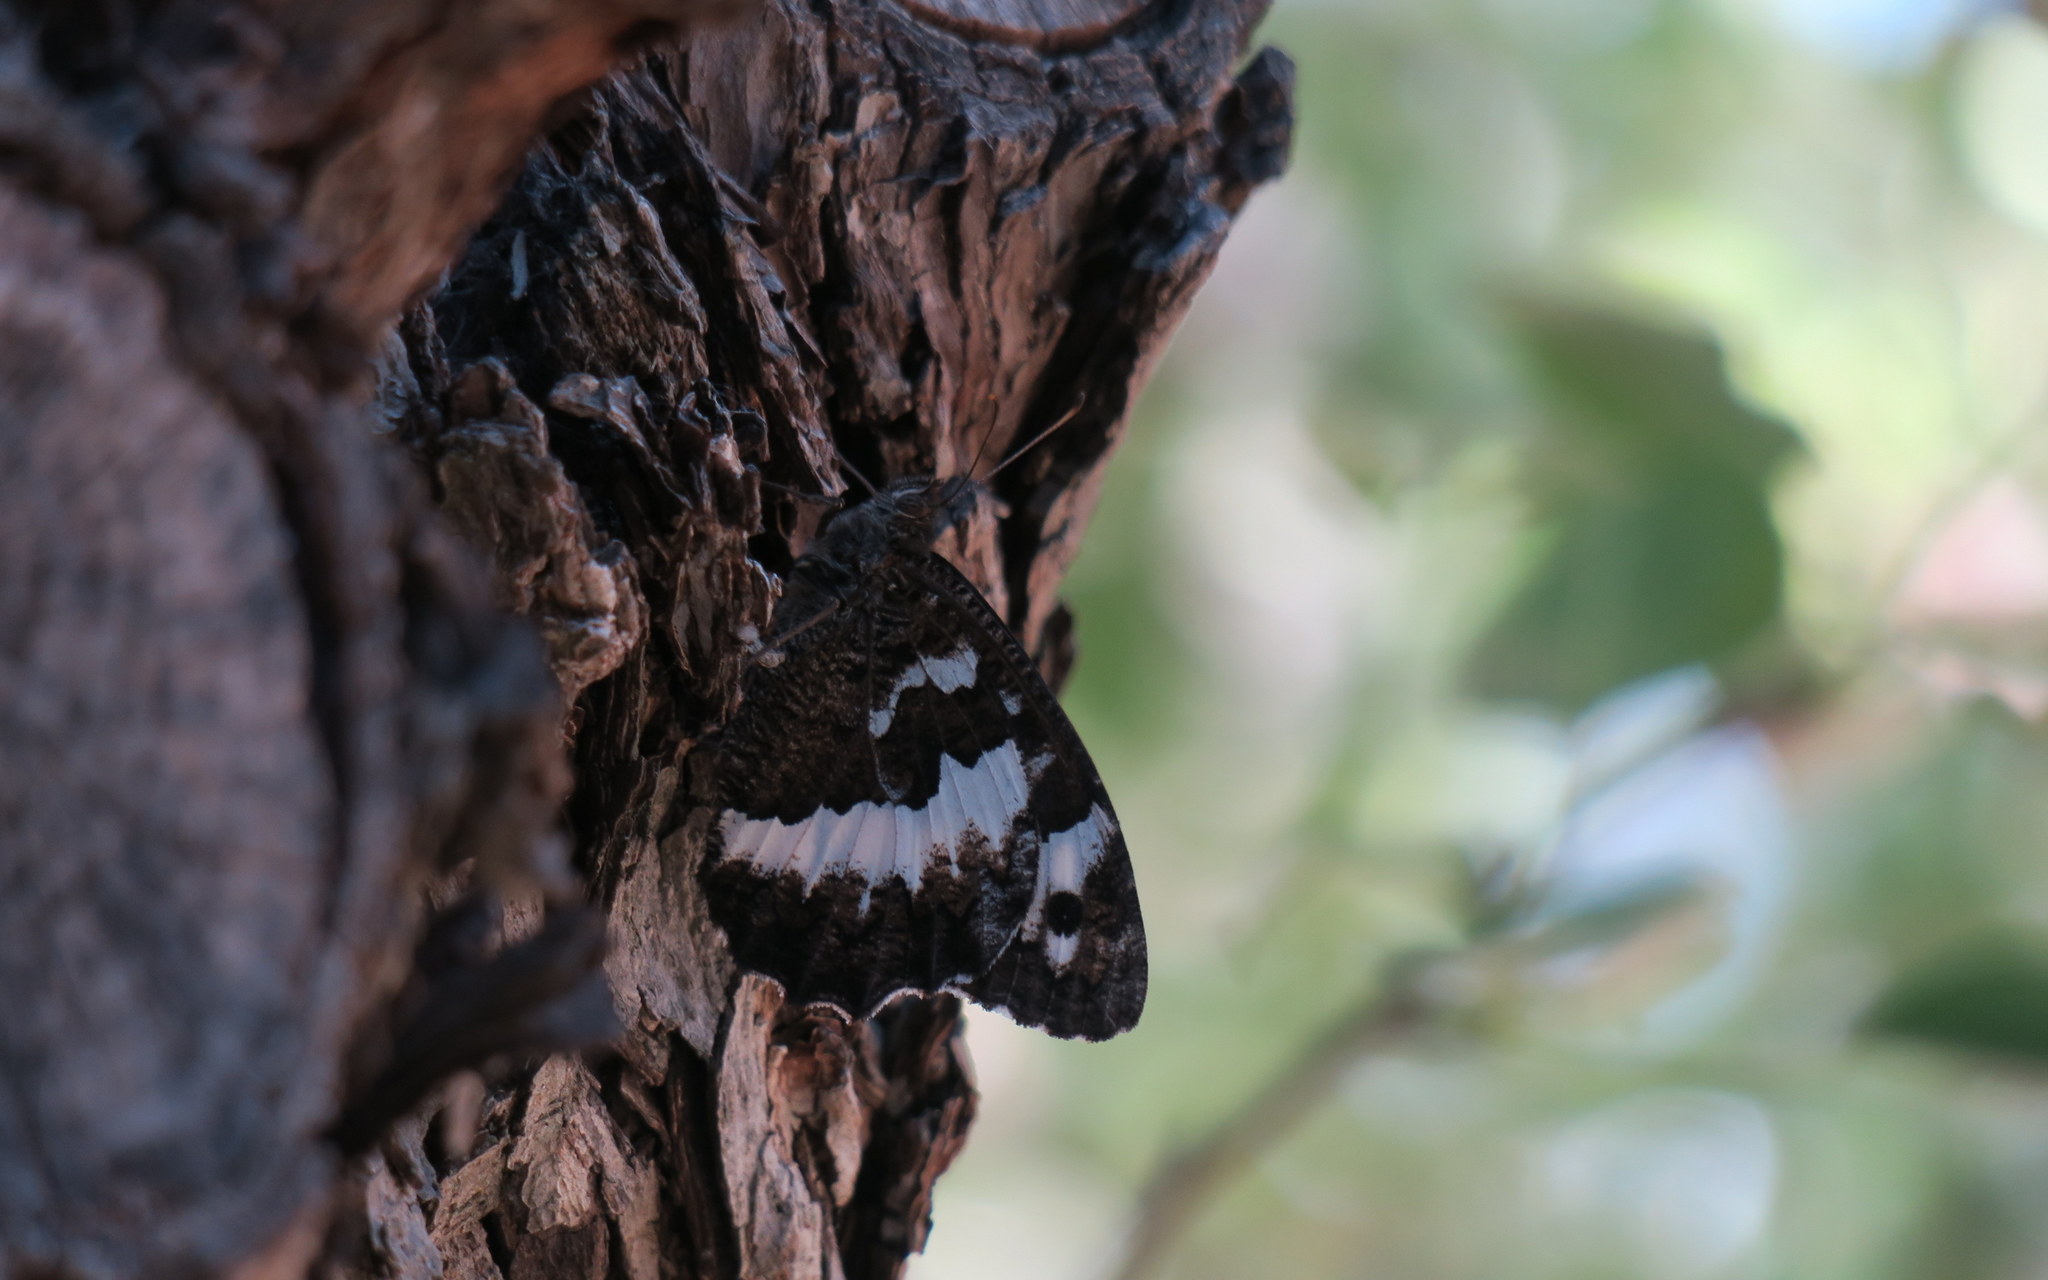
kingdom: Animalia
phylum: Arthropoda
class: Insecta
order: Lepidoptera
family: Lycaenidae
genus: Loweia
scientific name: Loweia tityrus
